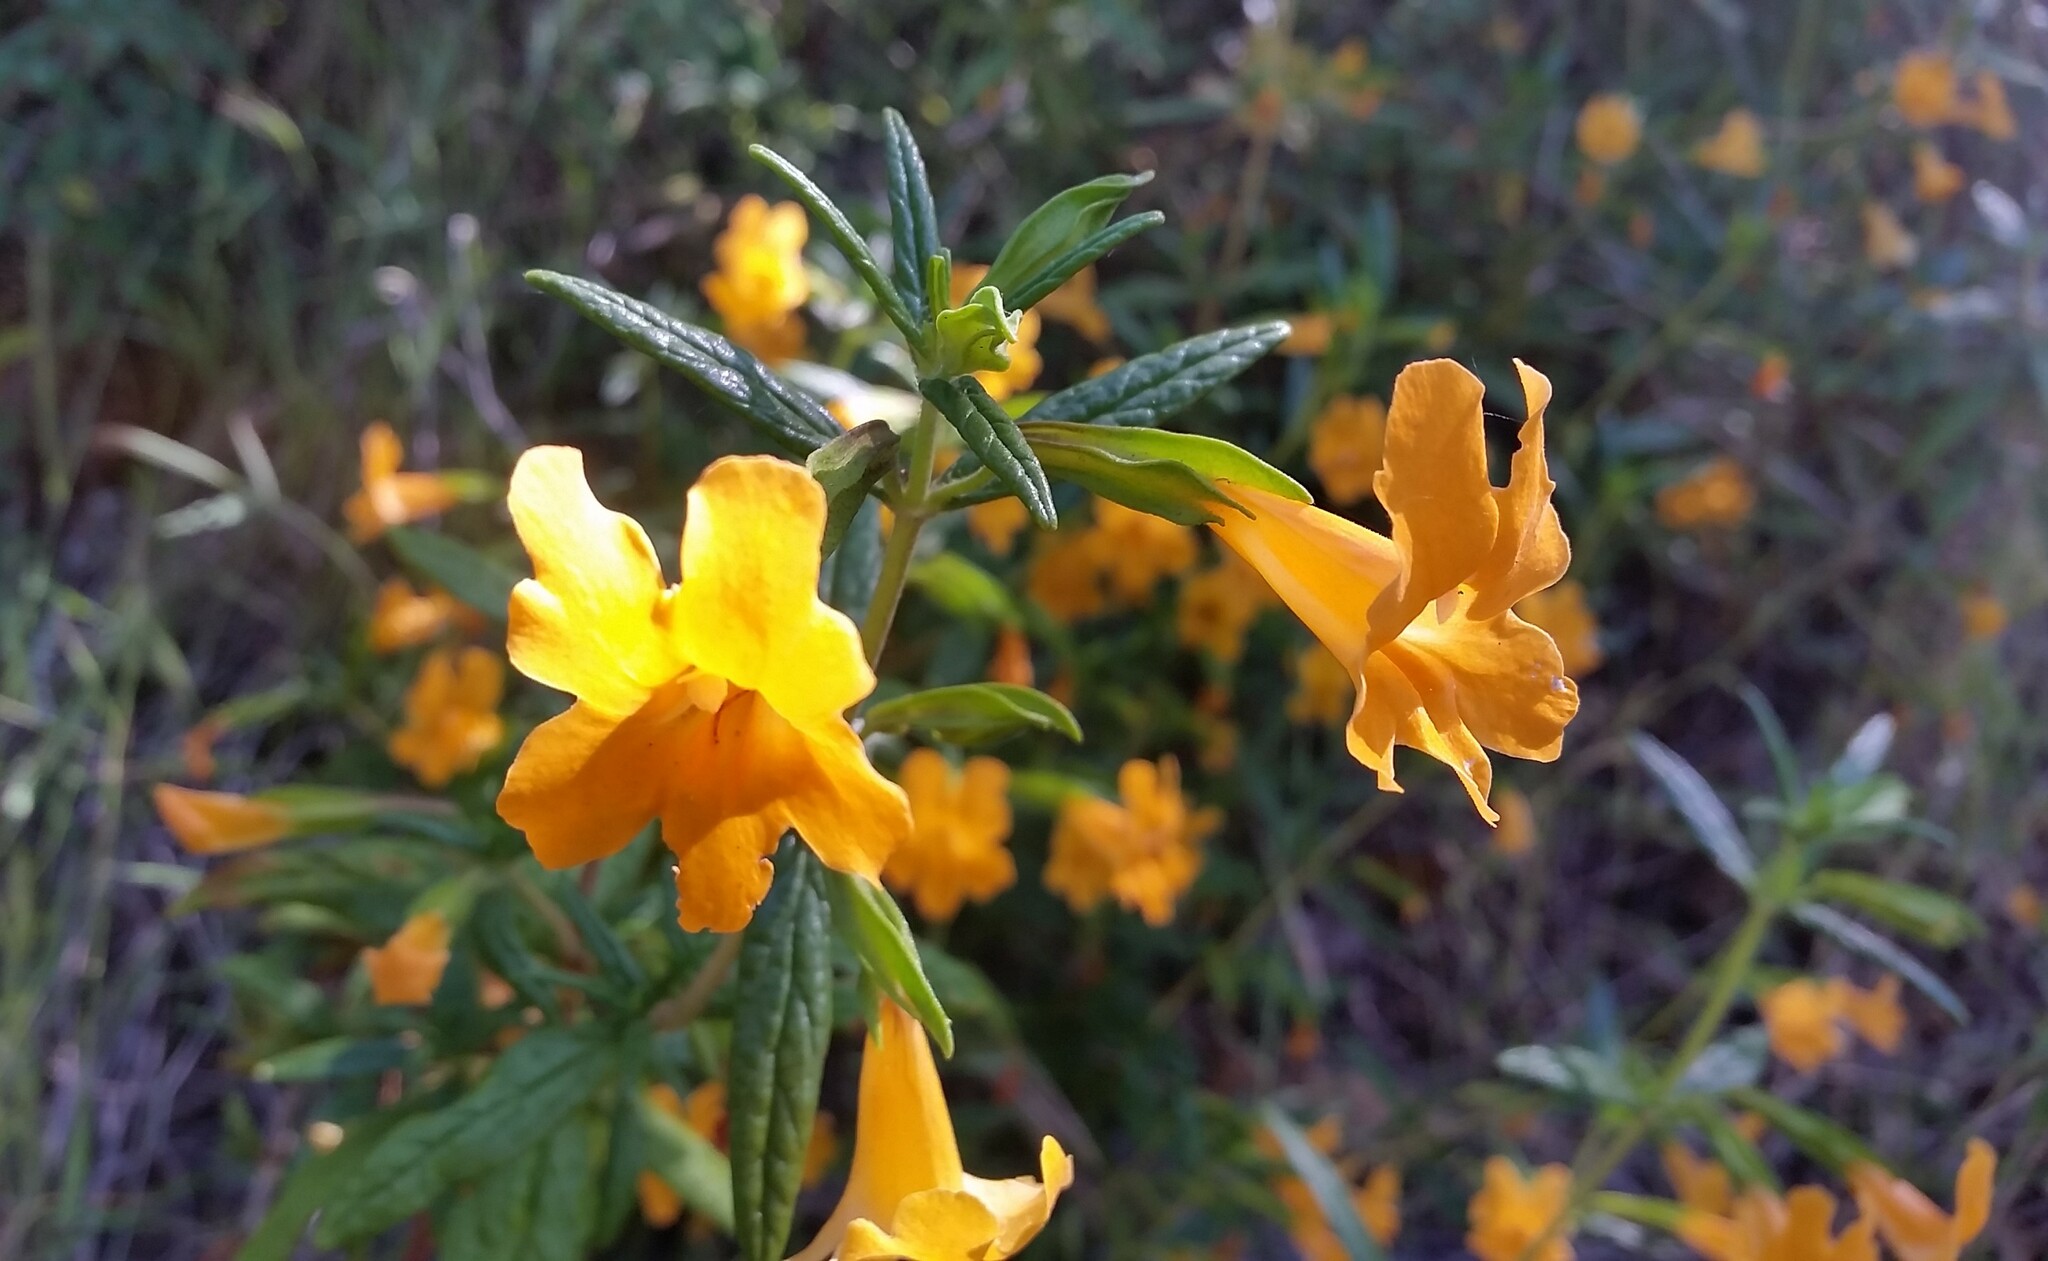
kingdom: Plantae
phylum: Tracheophyta
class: Magnoliopsida
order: Lamiales
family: Phrymaceae
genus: Diplacus
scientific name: Diplacus aurantiacus
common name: Bush monkey-flower
